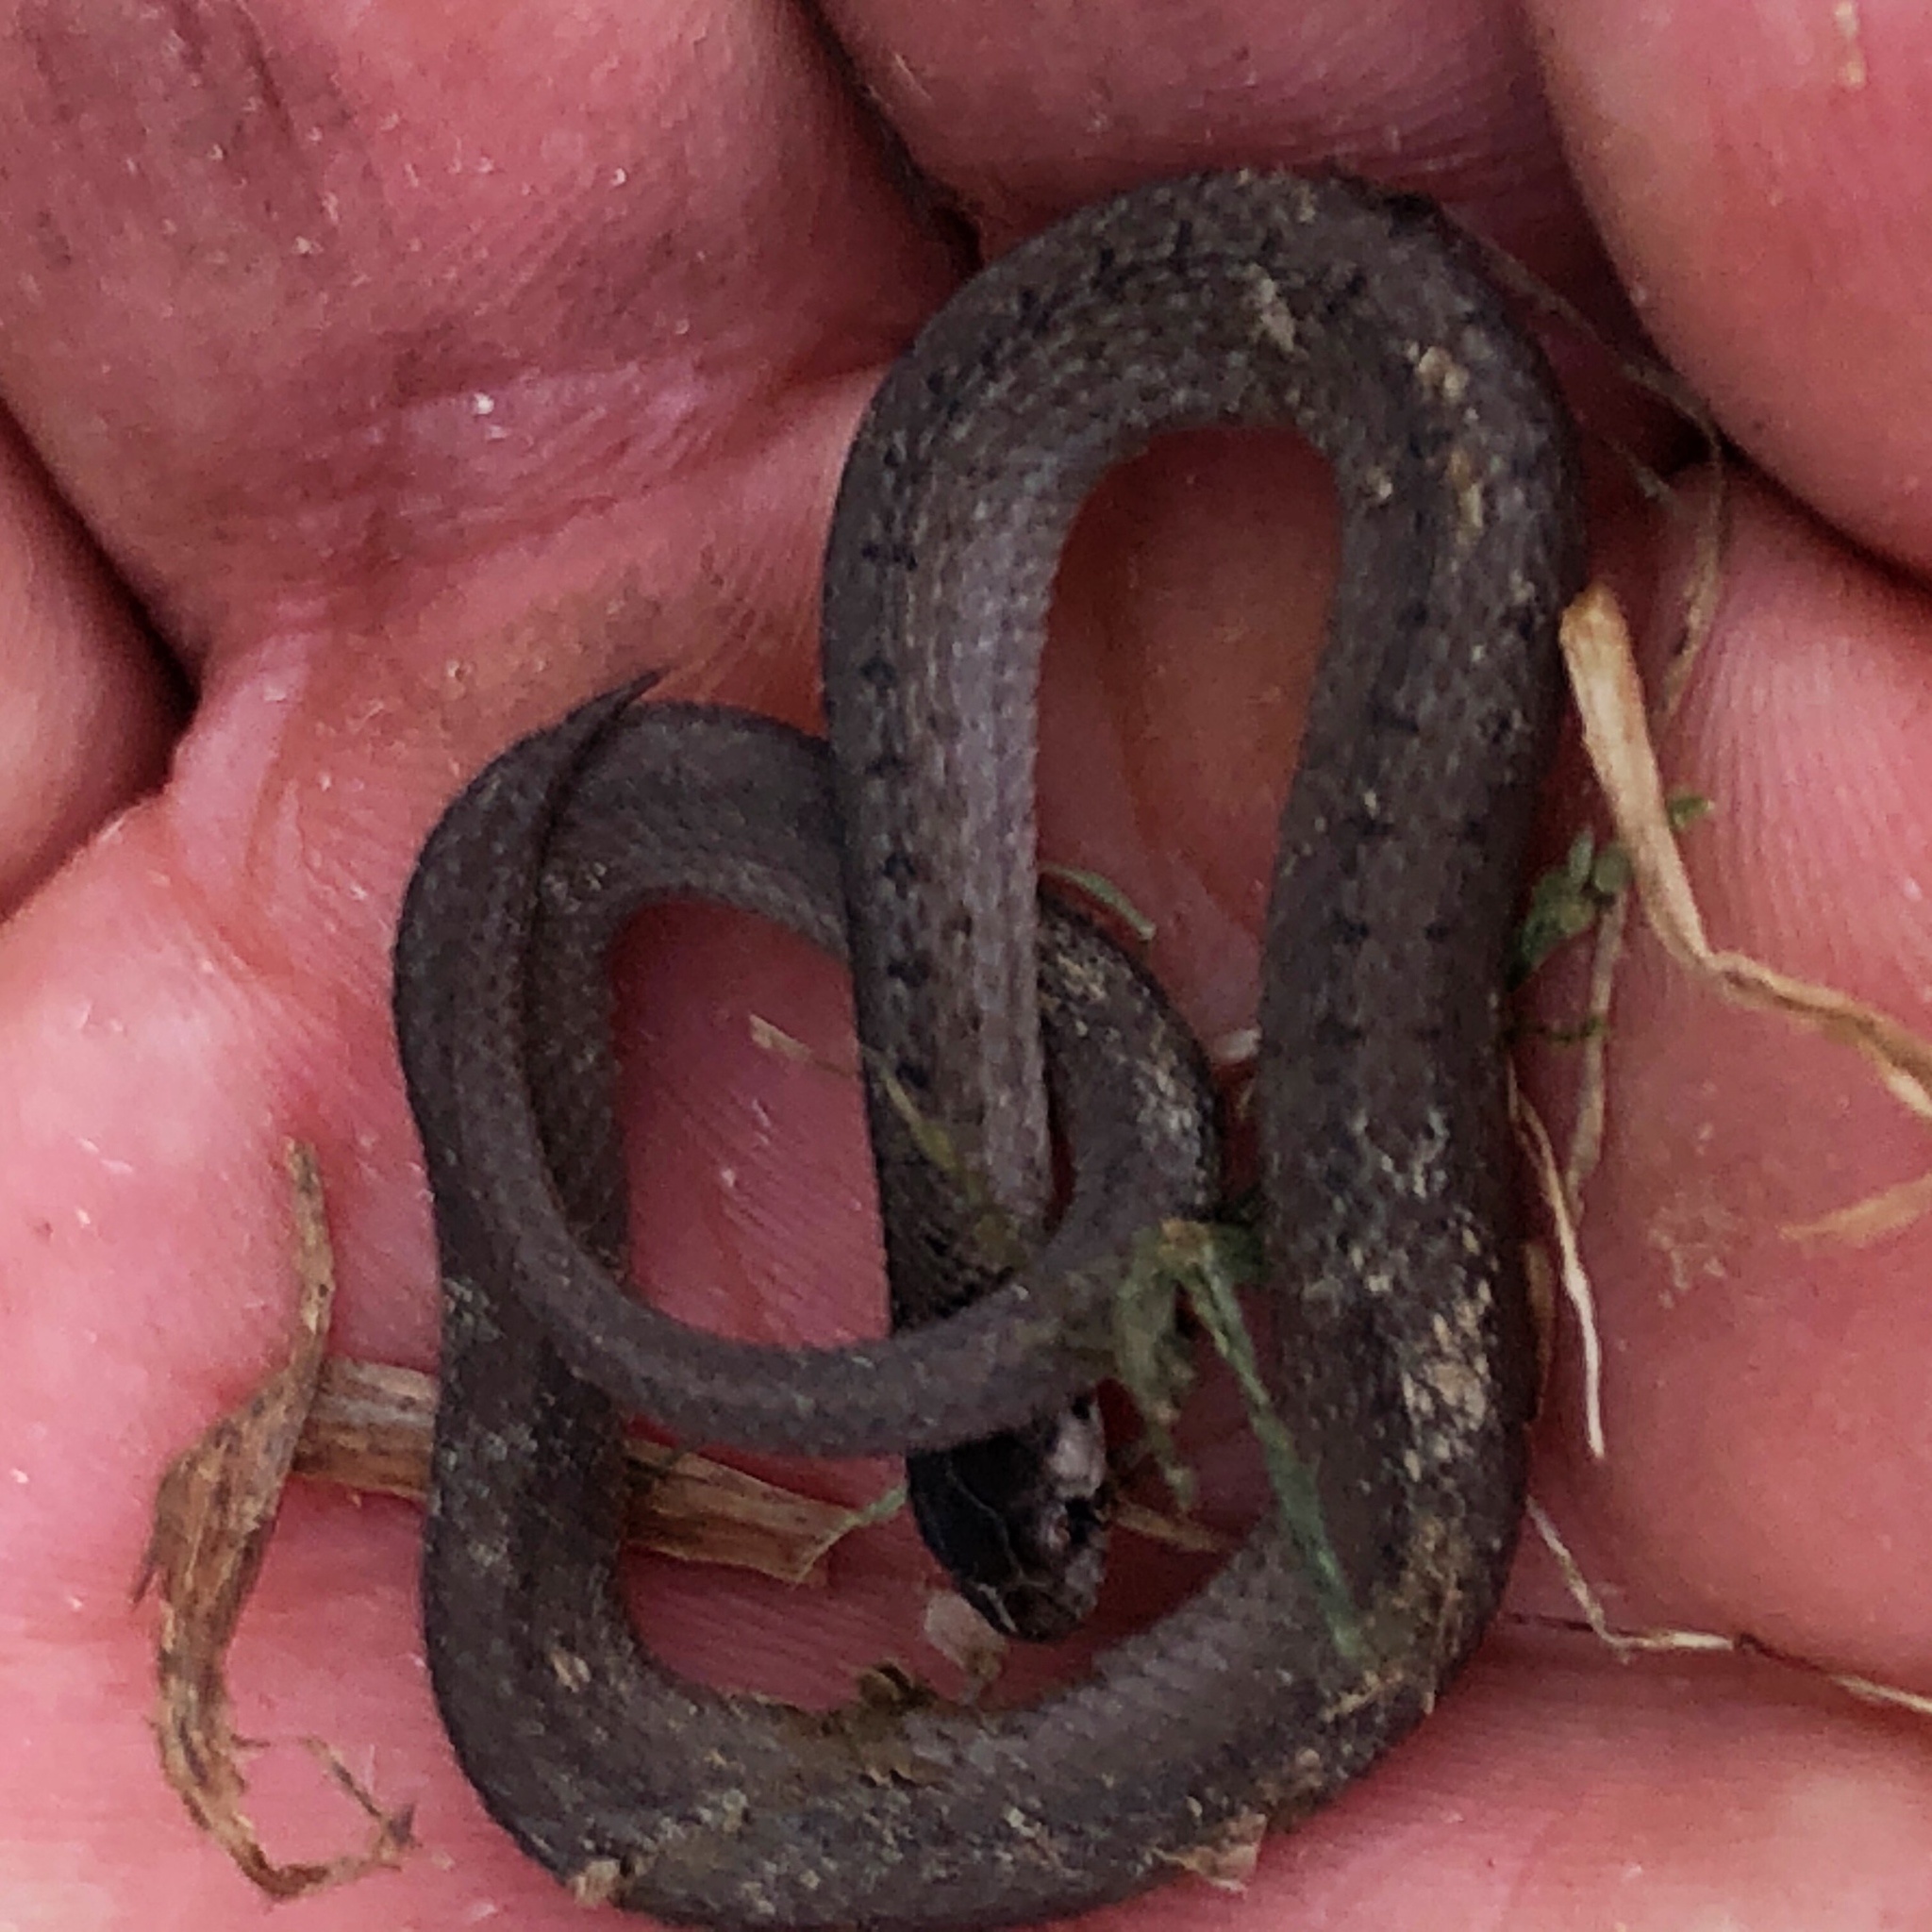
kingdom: Animalia
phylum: Chordata
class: Squamata
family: Colubridae
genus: Storeria
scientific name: Storeria dekayi
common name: (dekay’s) brown snake
